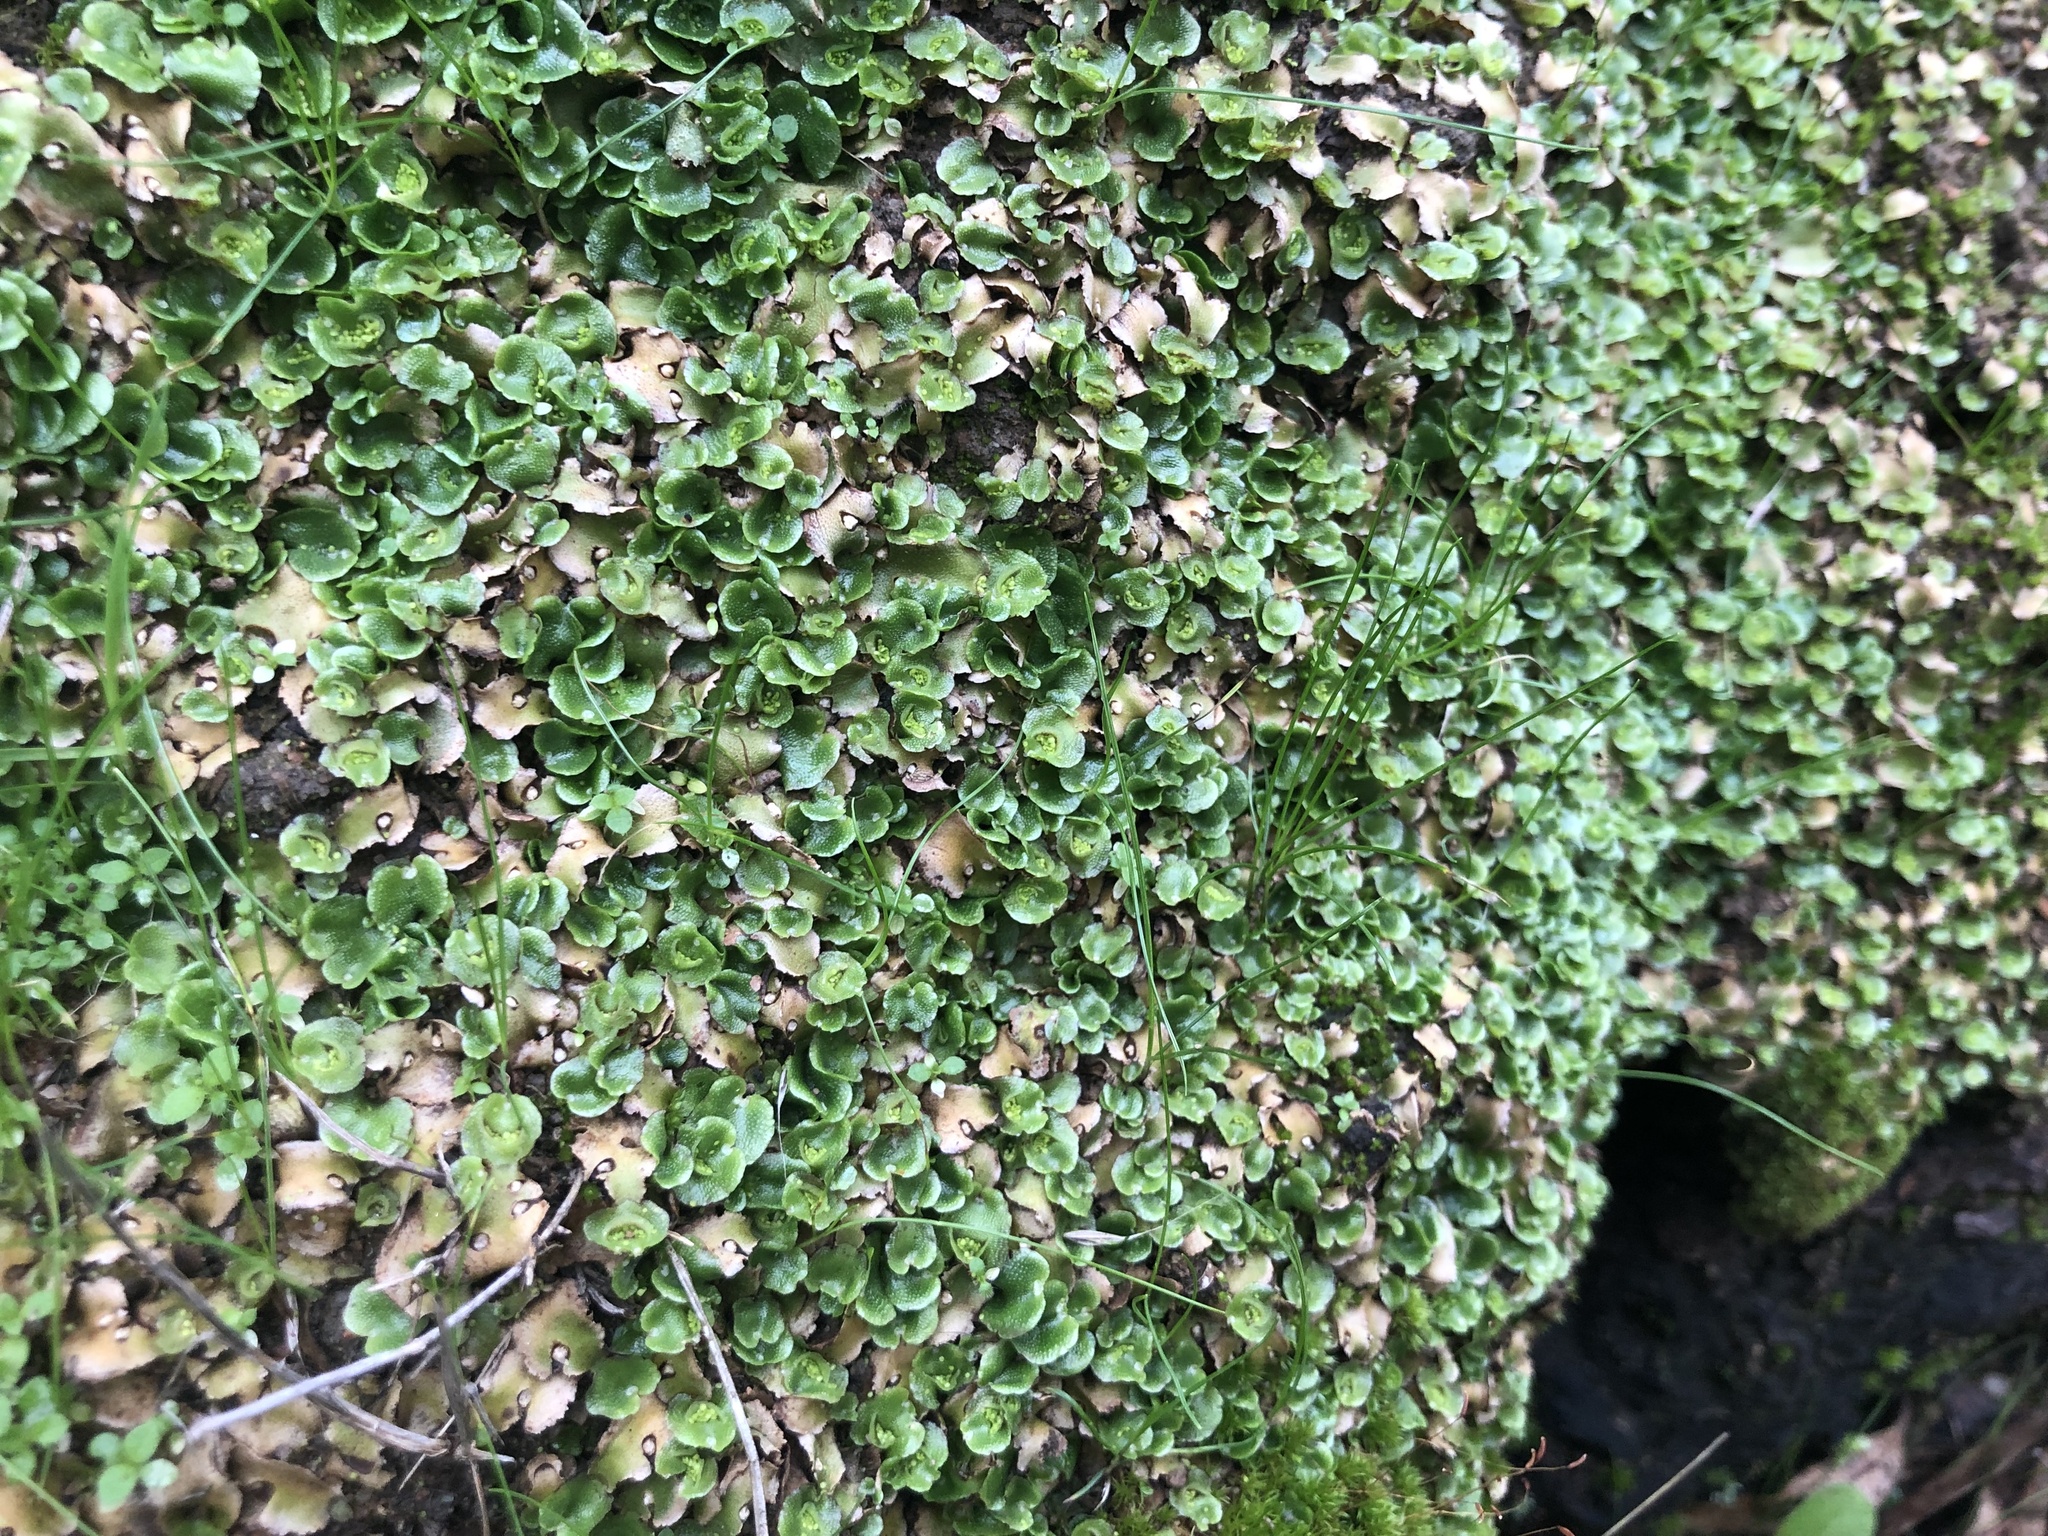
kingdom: Plantae
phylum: Marchantiophyta
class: Marchantiopsida
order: Lunulariales
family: Lunulariaceae
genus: Lunularia
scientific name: Lunularia cruciata
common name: Crescent-cup liverwort
